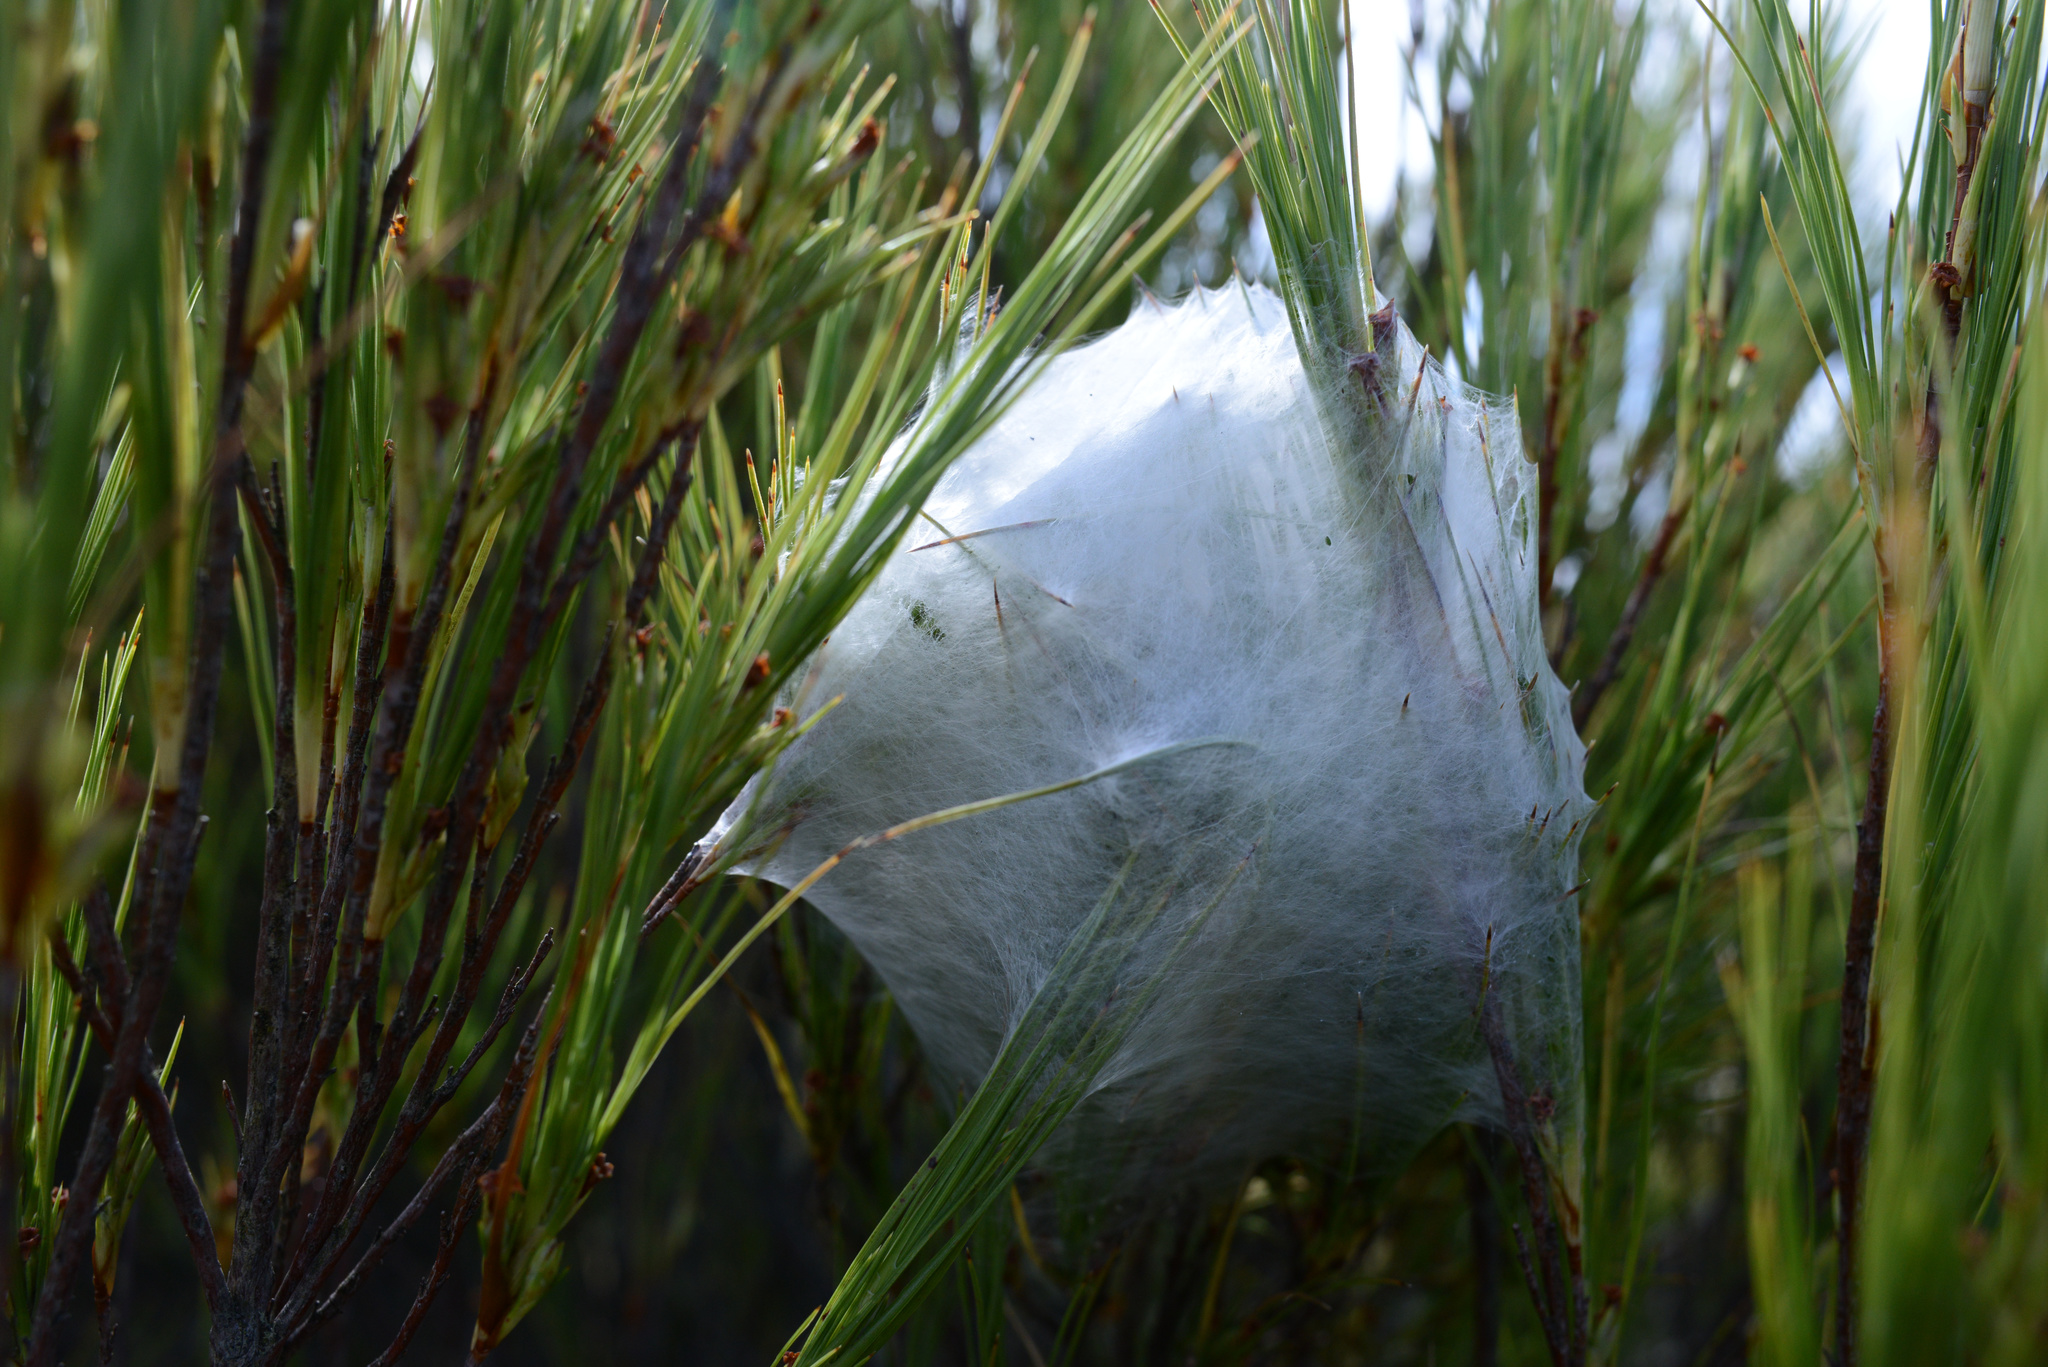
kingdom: Animalia
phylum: Arthropoda
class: Arachnida
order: Araneae
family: Pisauridae
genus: Dolomedes
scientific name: Dolomedes minor
